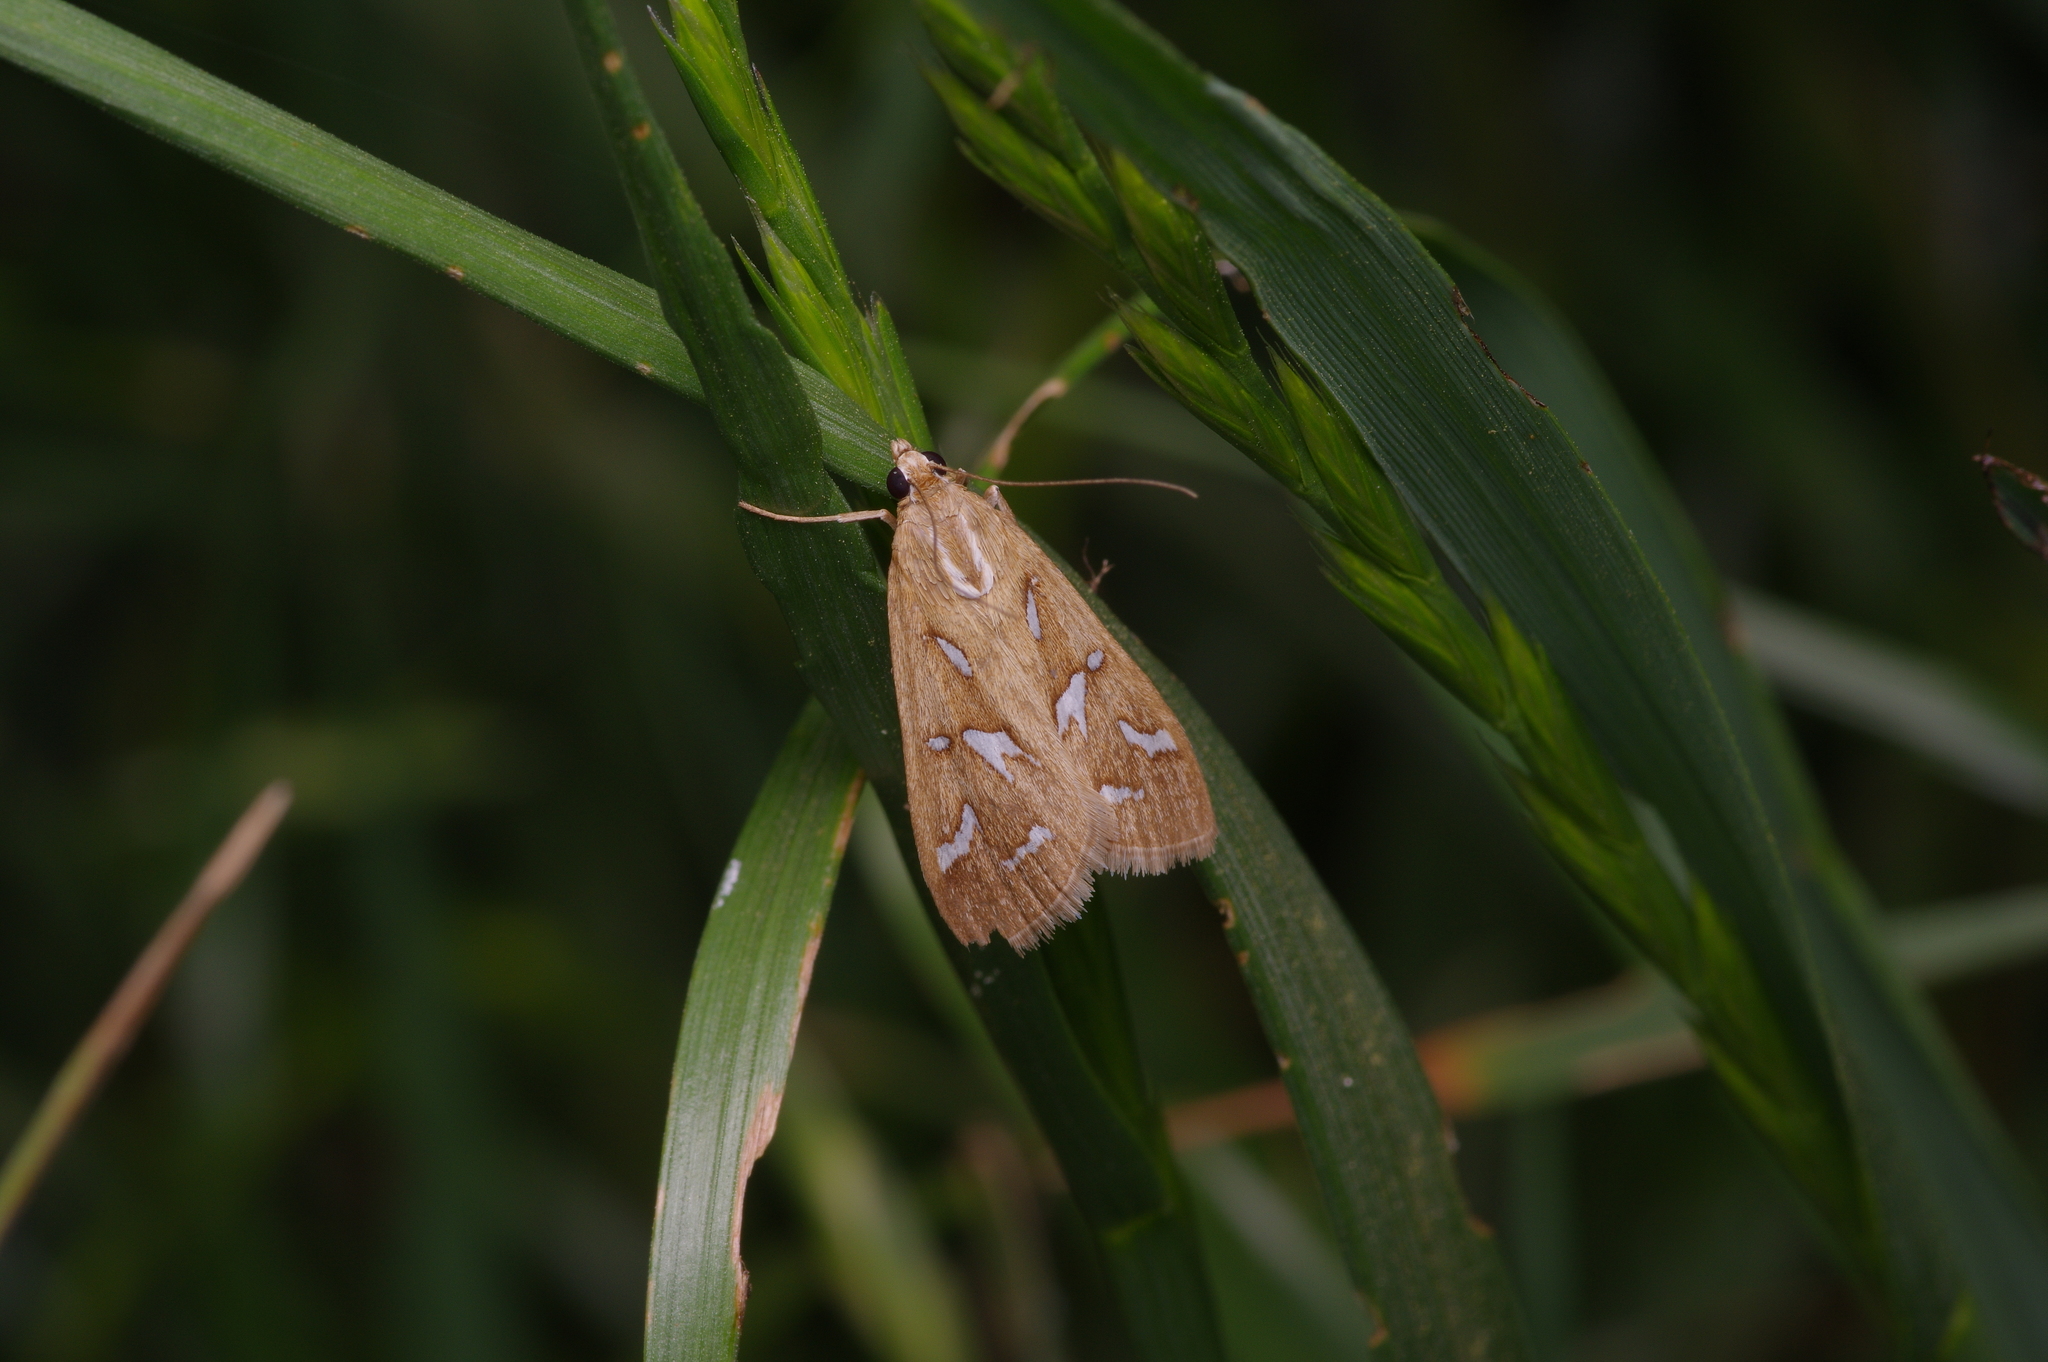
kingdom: Animalia
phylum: Arthropoda
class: Insecta
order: Lepidoptera
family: Crambidae
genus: Diastictis
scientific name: Diastictis fracturalis
